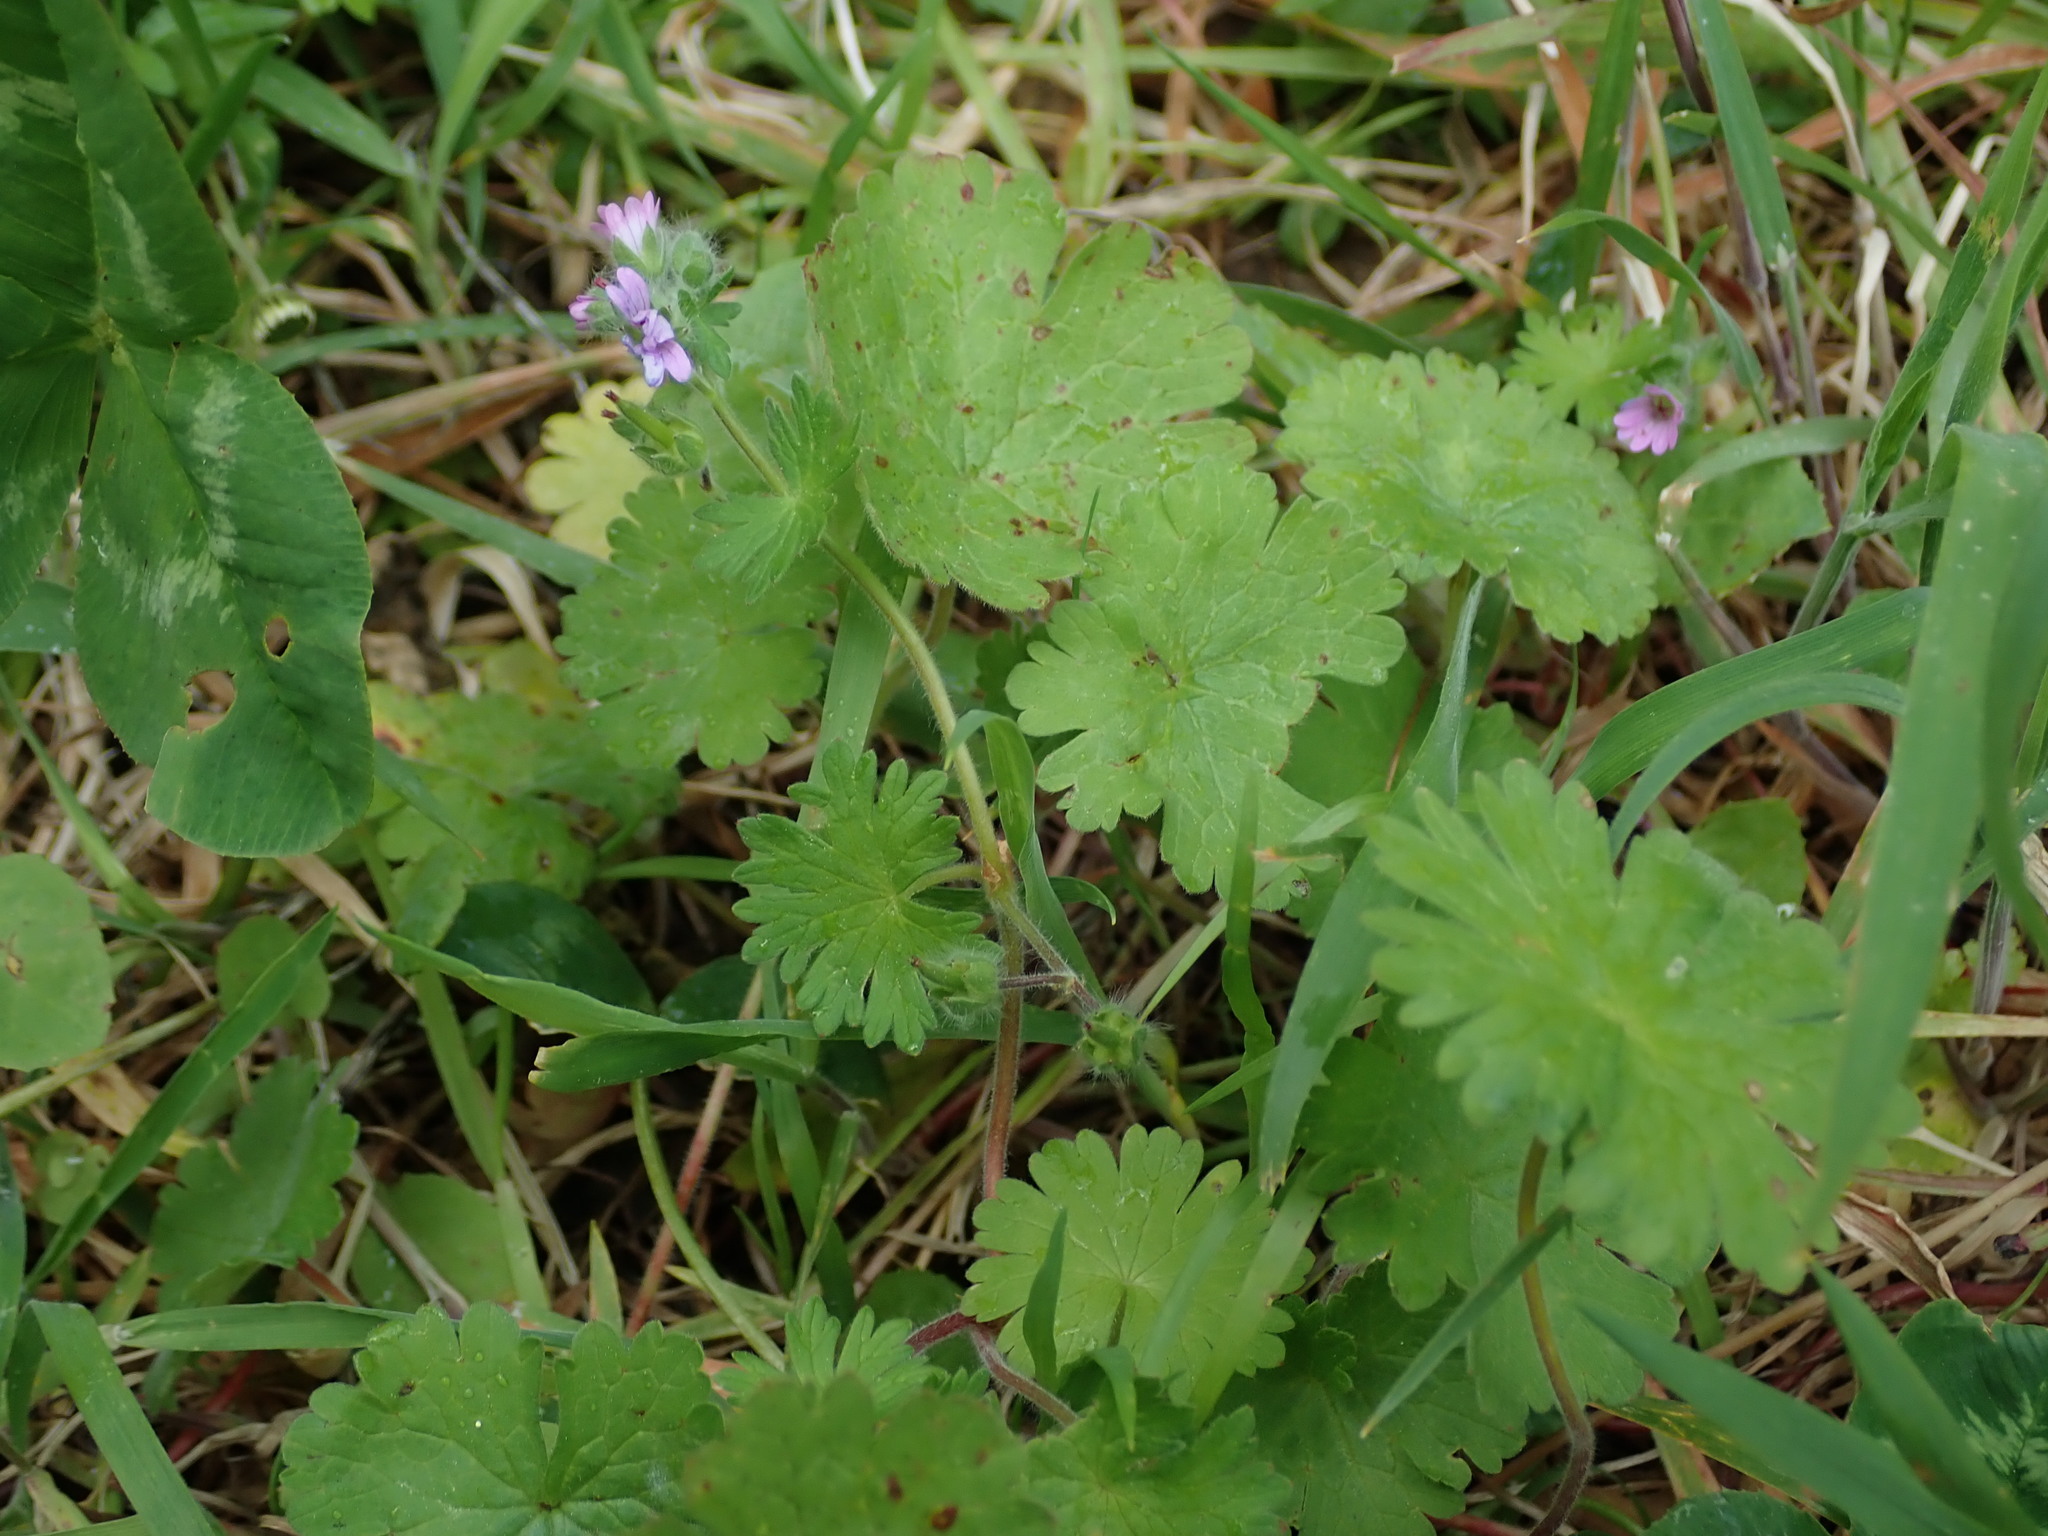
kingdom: Plantae
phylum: Tracheophyta
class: Magnoliopsida
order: Geraniales
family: Geraniaceae
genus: Geranium
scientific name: Geranium molle
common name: Dove's-foot crane's-bill
